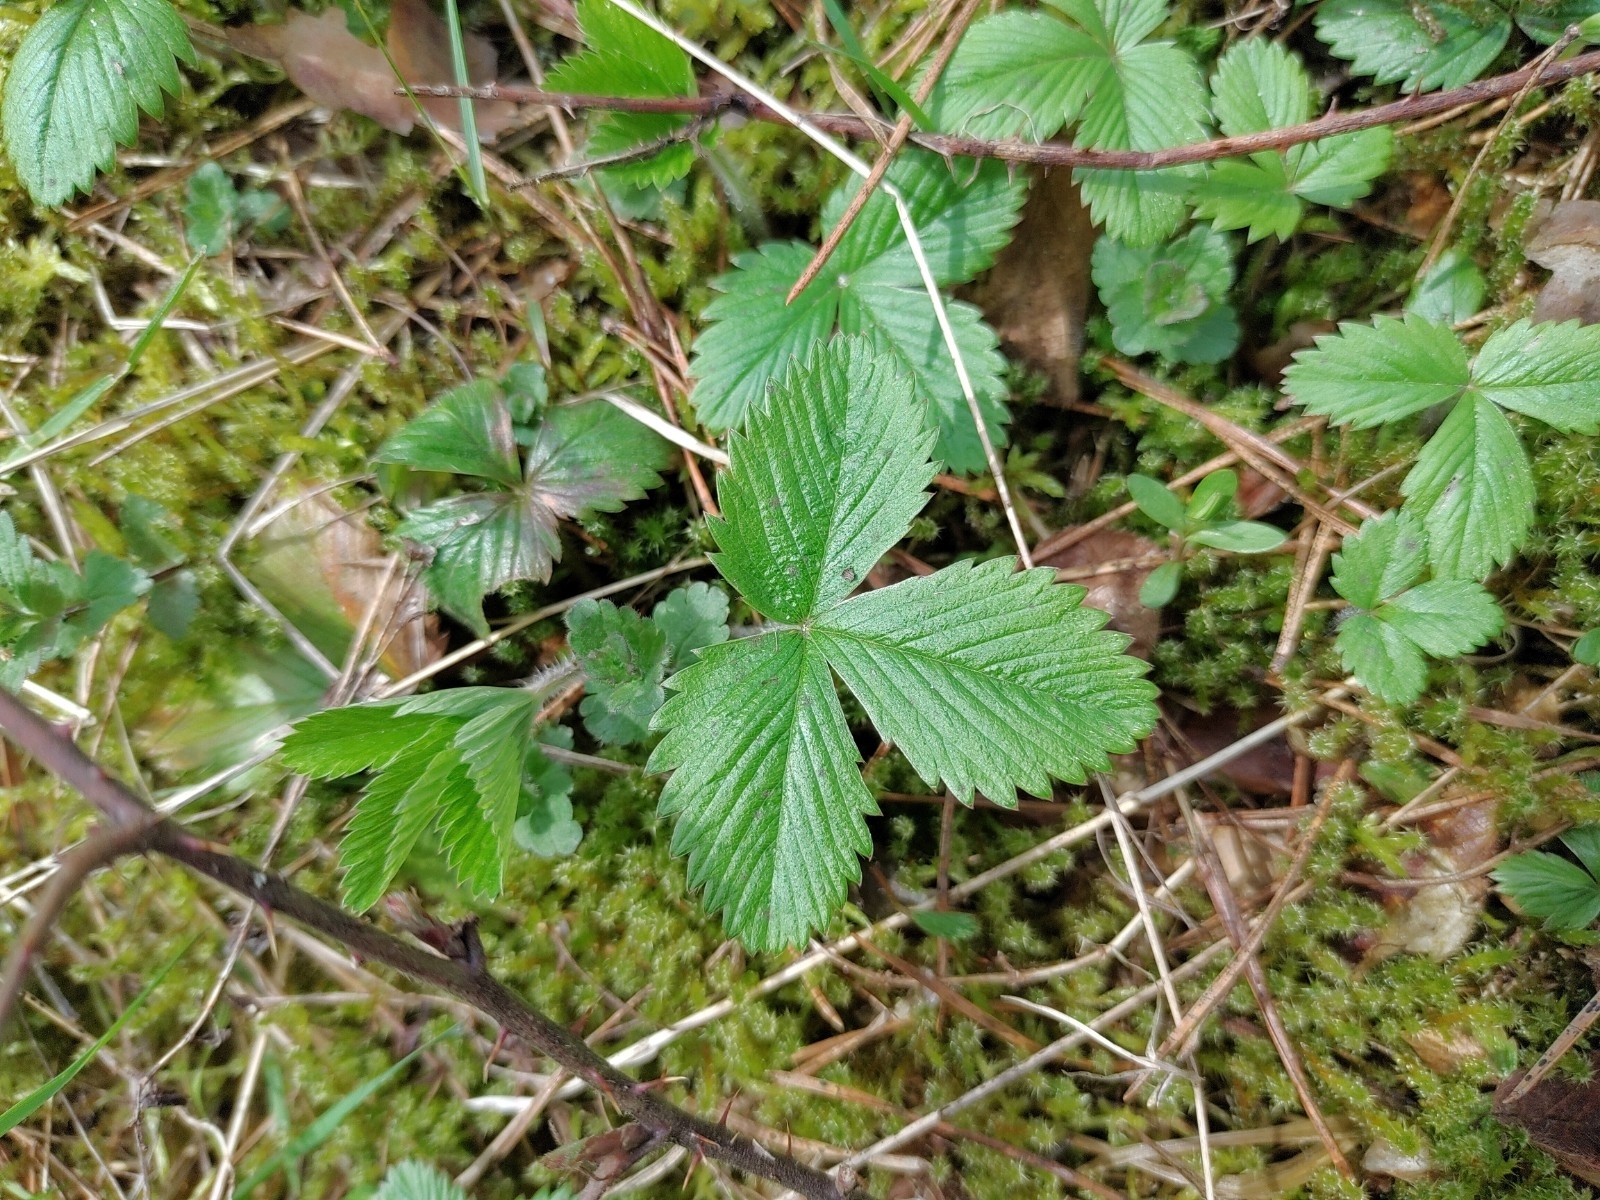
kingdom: Plantae
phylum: Tracheophyta
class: Magnoliopsida
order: Rosales
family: Rosaceae
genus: Fragaria
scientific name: Fragaria vesca
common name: Wild strawberry
